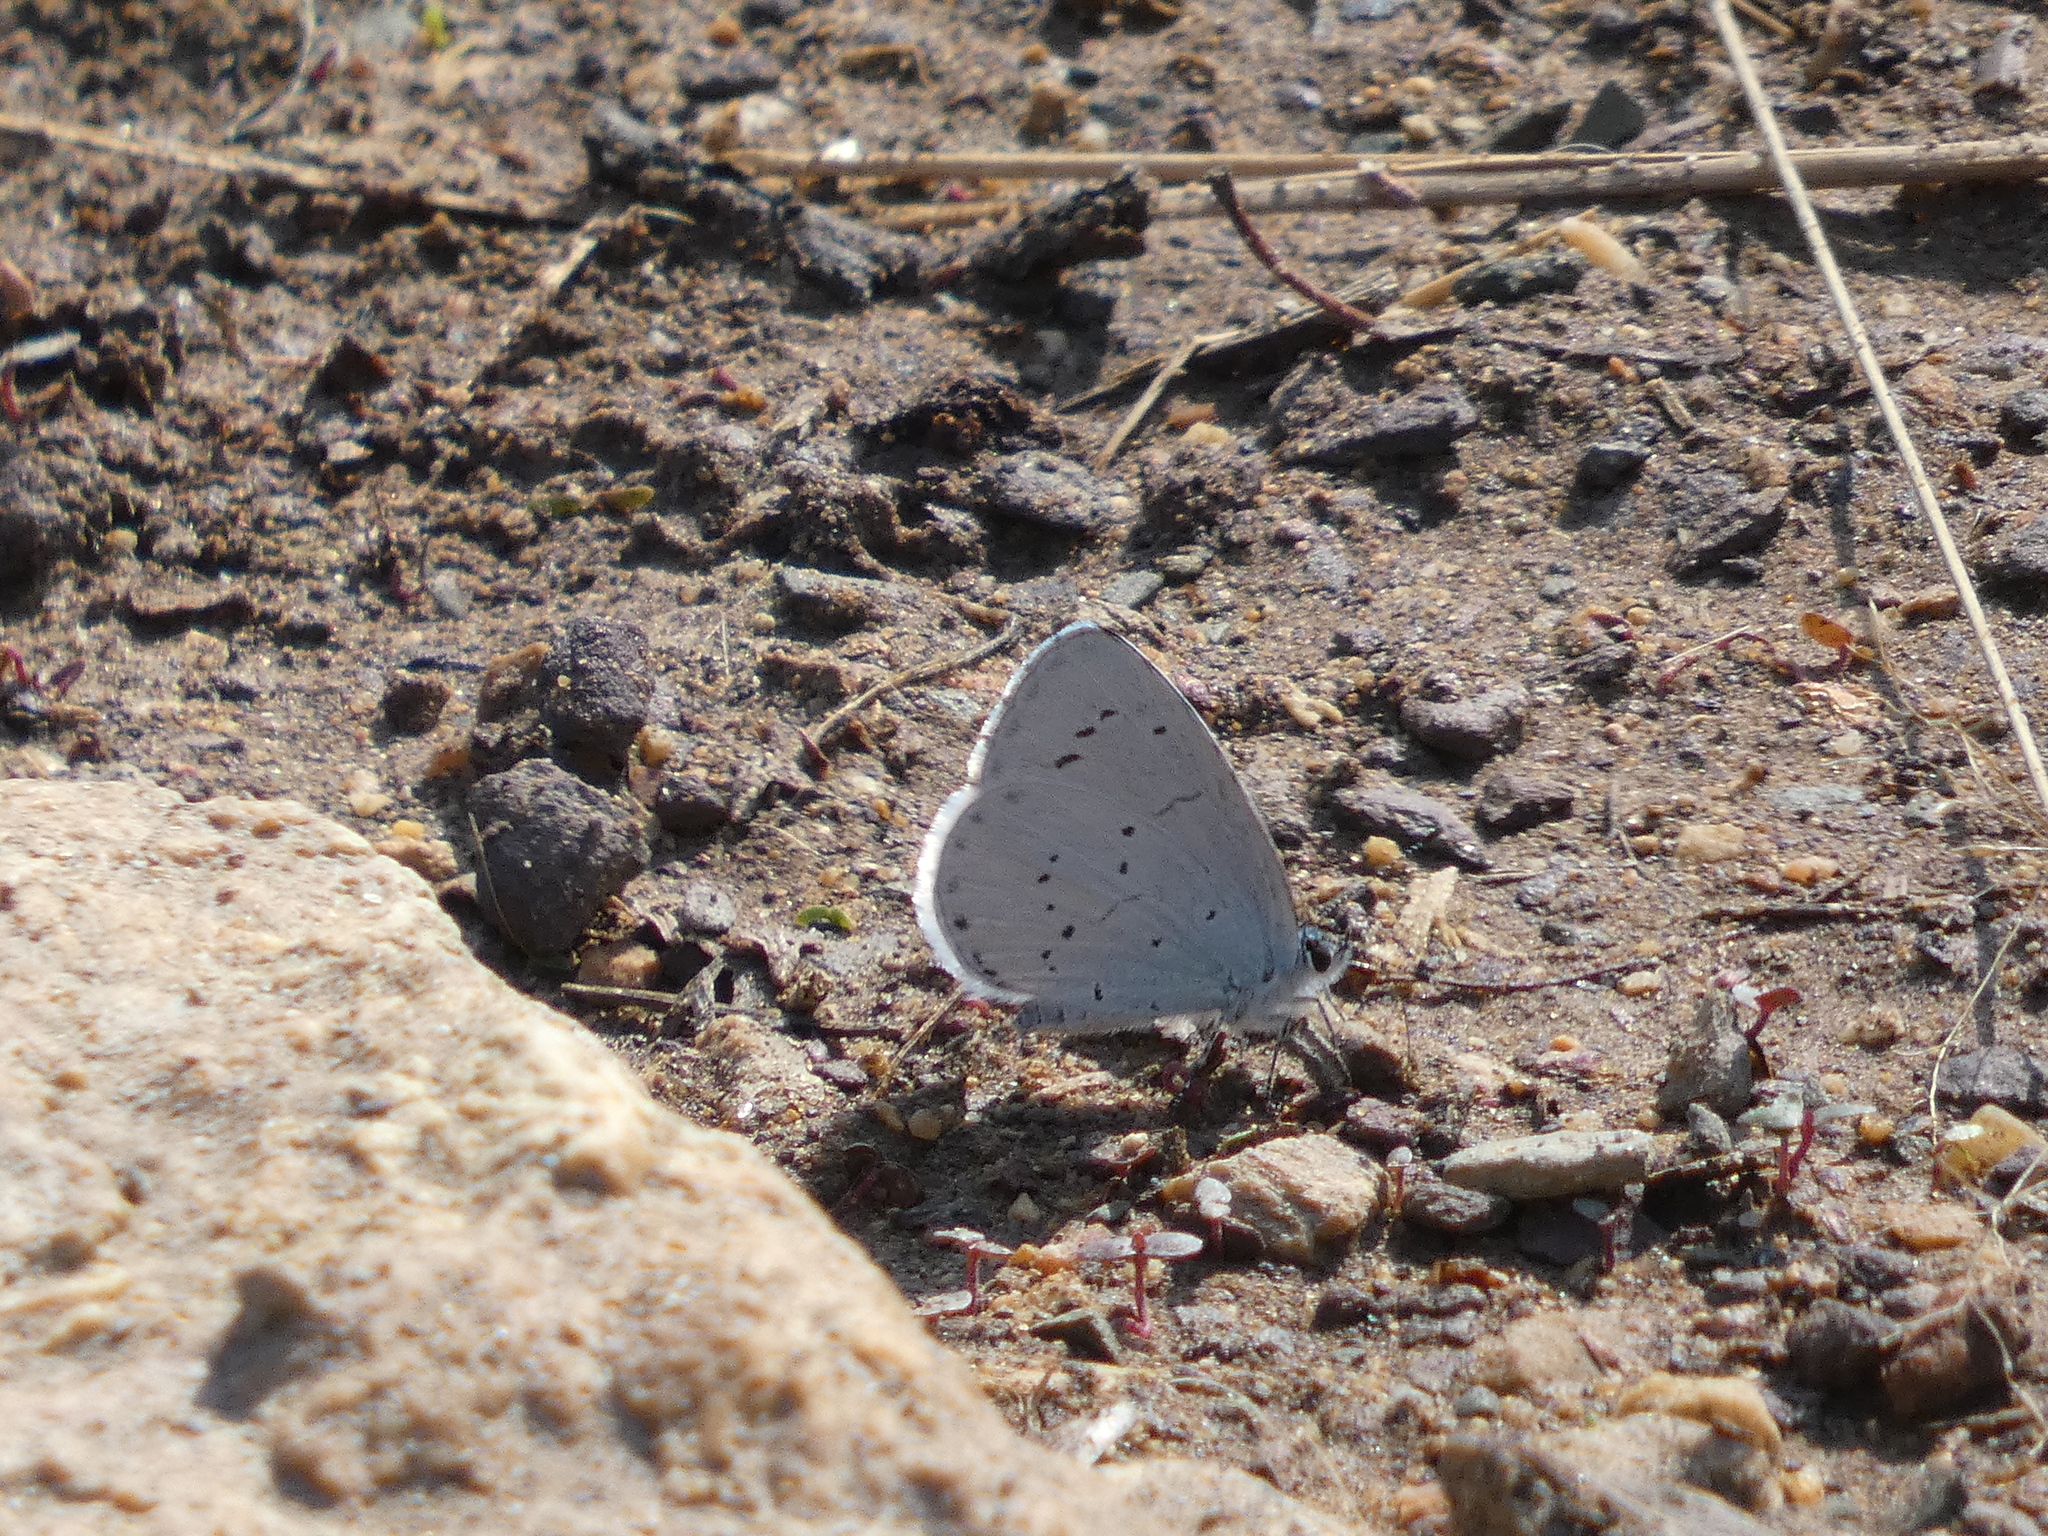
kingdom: Animalia
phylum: Arthropoda
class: Insecta
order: Lepidoptera
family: Lycaenidae
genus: Celastrina
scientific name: Celastrina argiolus
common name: Holly blue
